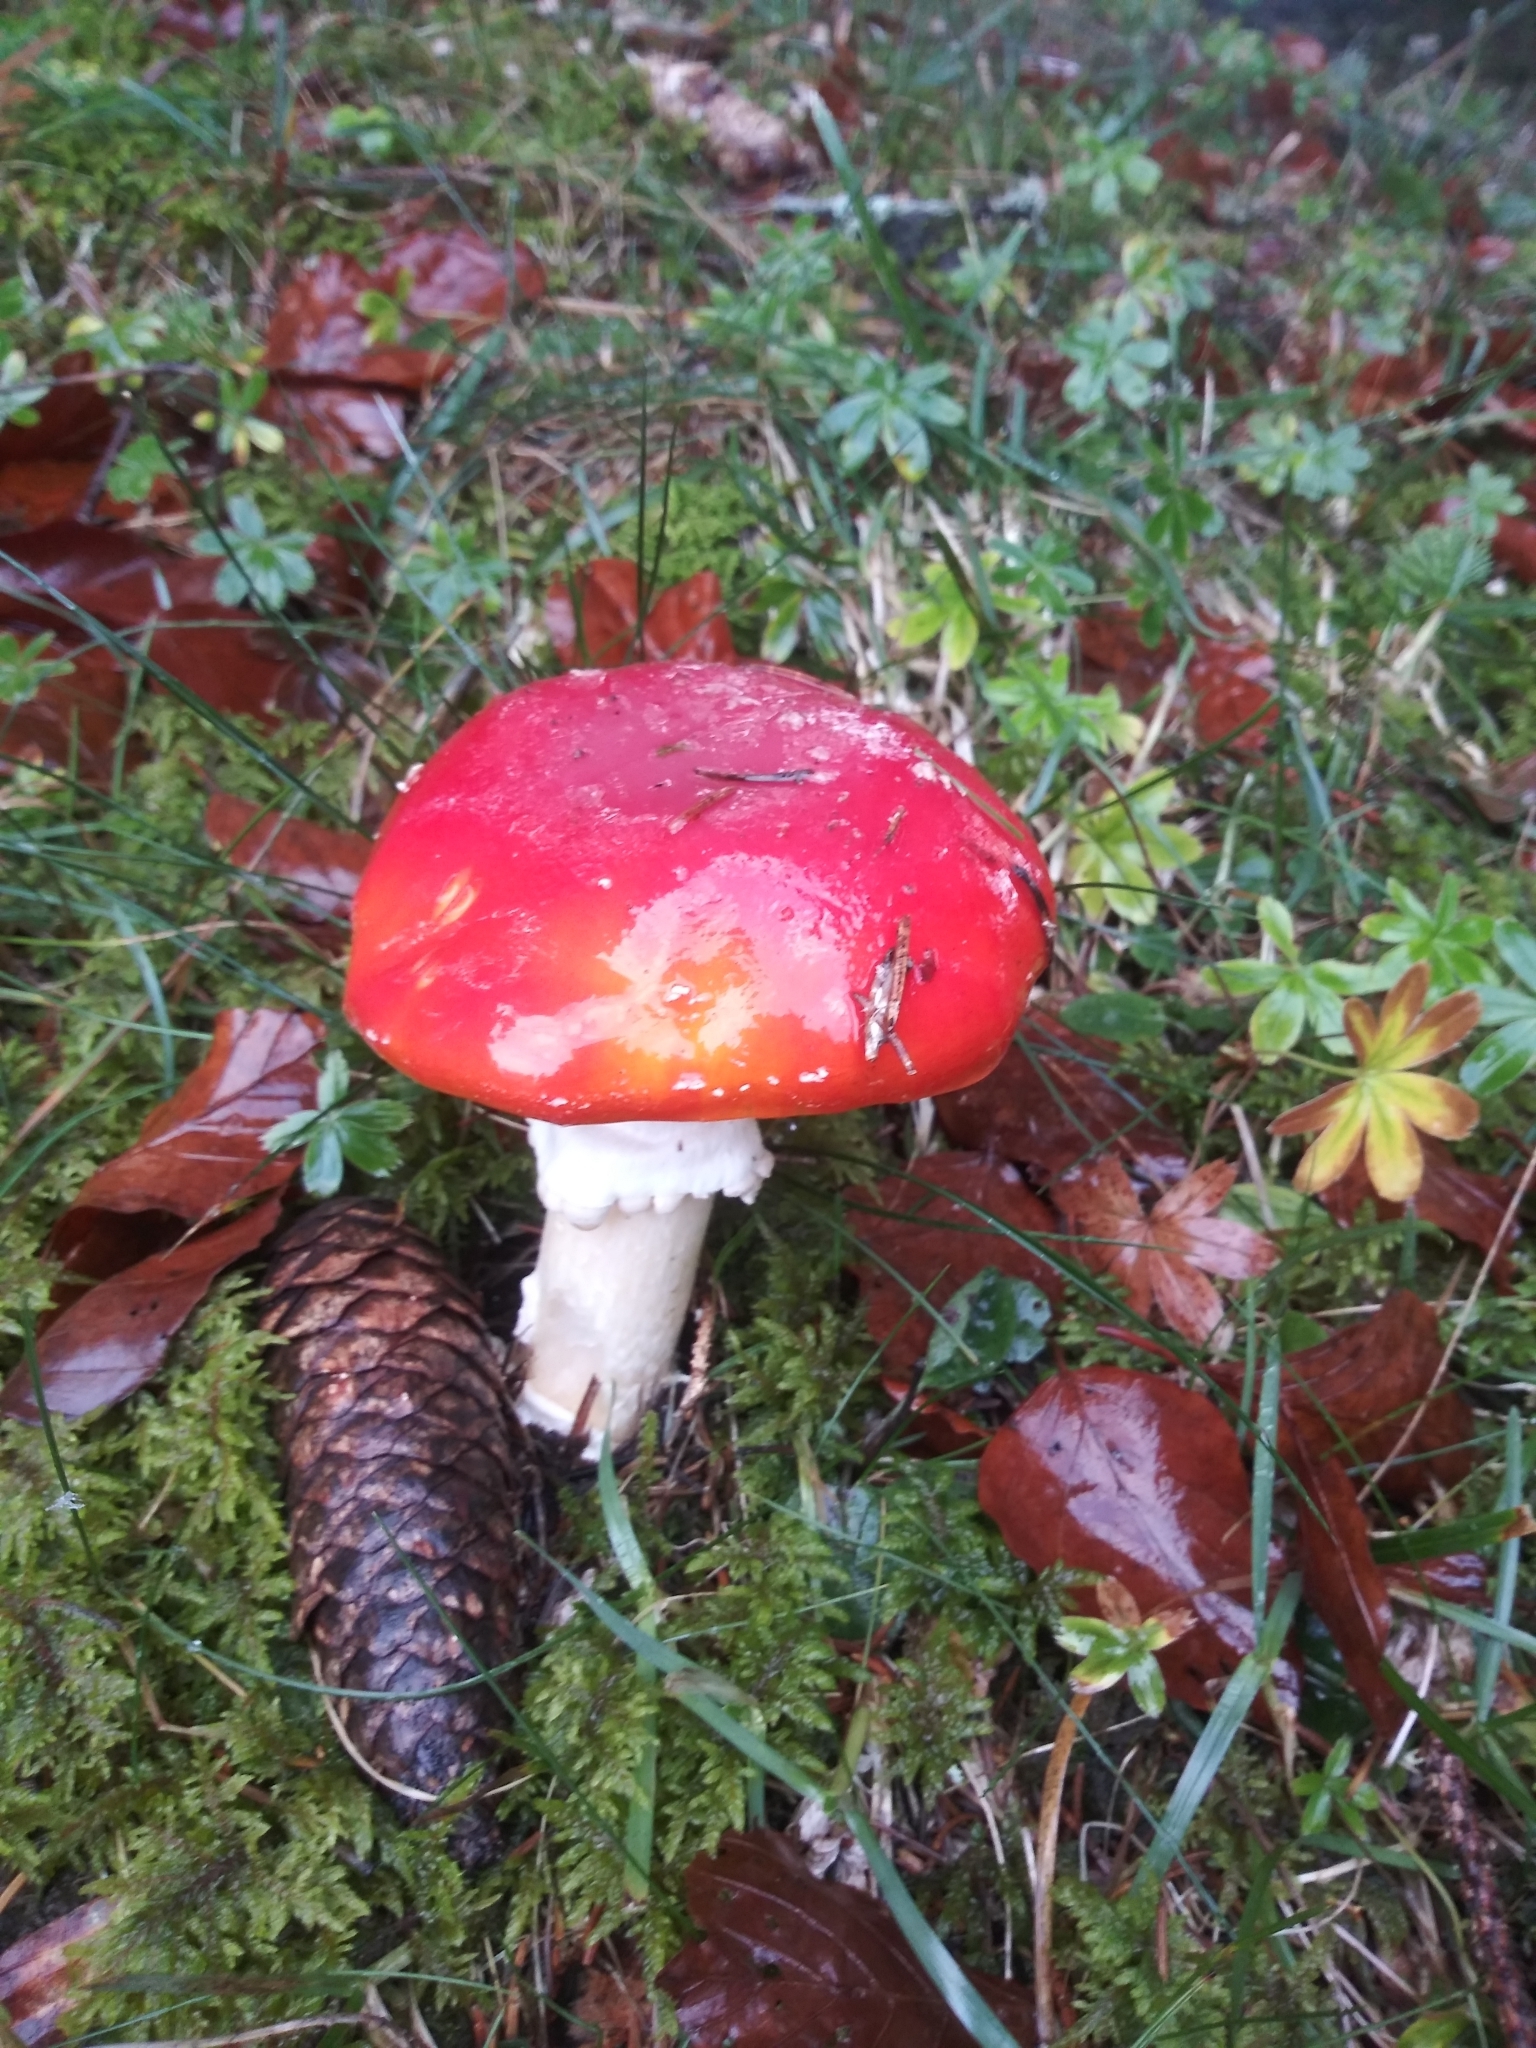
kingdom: Fungi
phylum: Basidiomycota
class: Agaricomycetes
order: Agaricales
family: Amanitaceae
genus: Amanita
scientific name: Amanita muscaria
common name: Fly agaric
